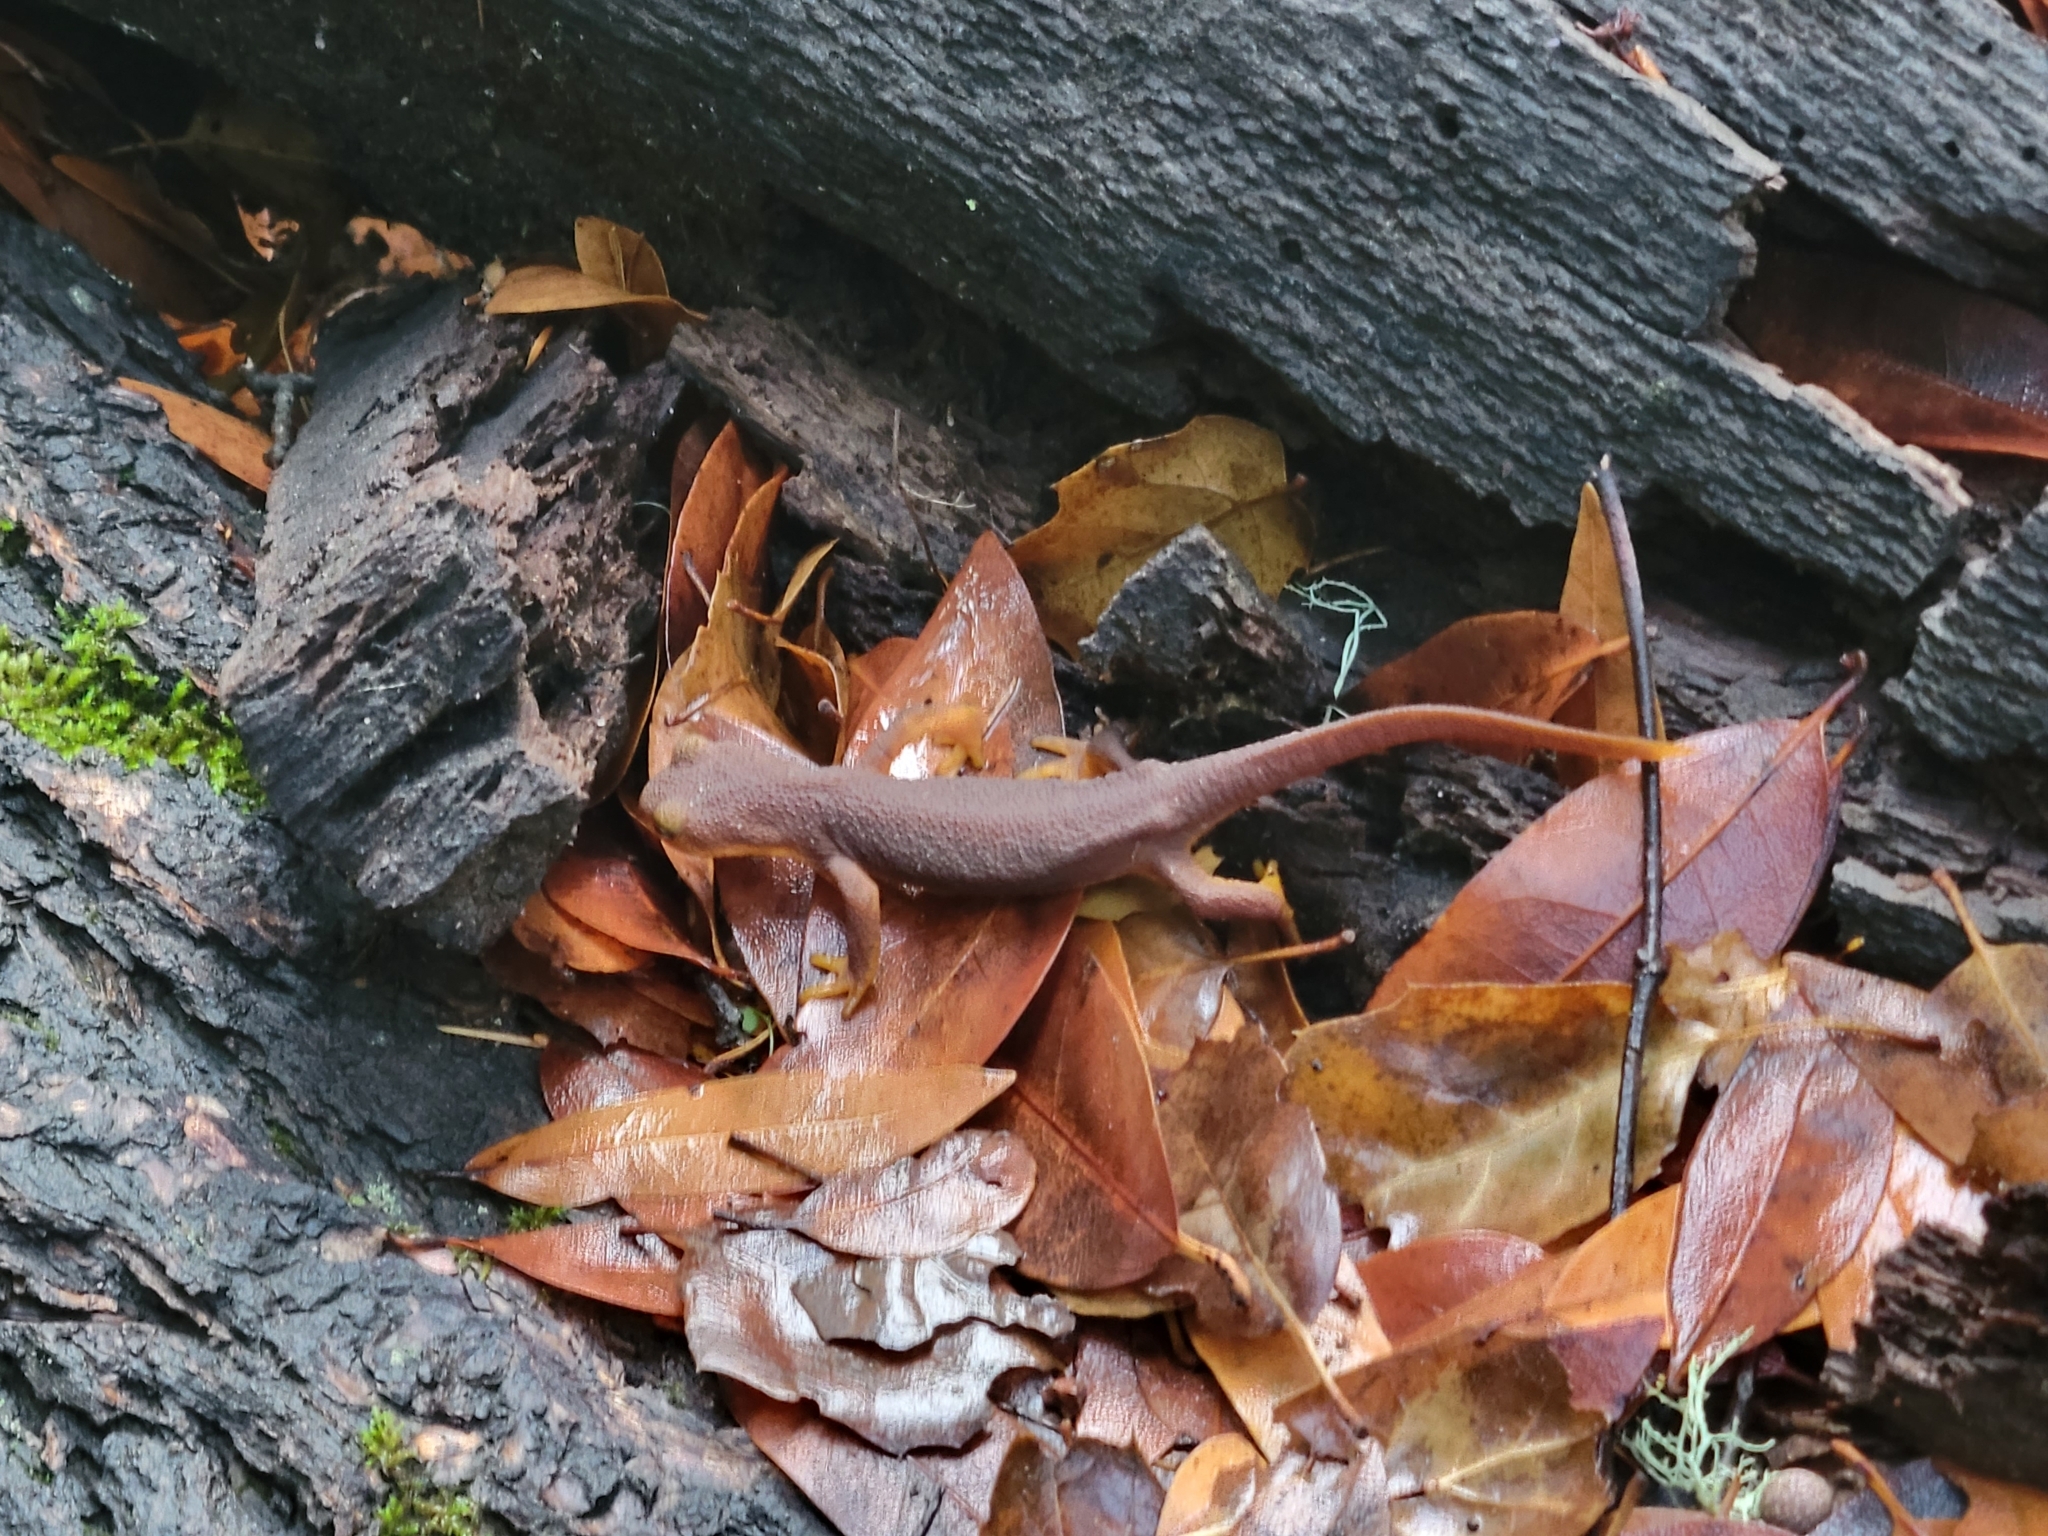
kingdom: Animalia
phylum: Chordata
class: Amphibia
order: Caudata
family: Salamandridae
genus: Taricha
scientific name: Taricha torosa
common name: California newt
